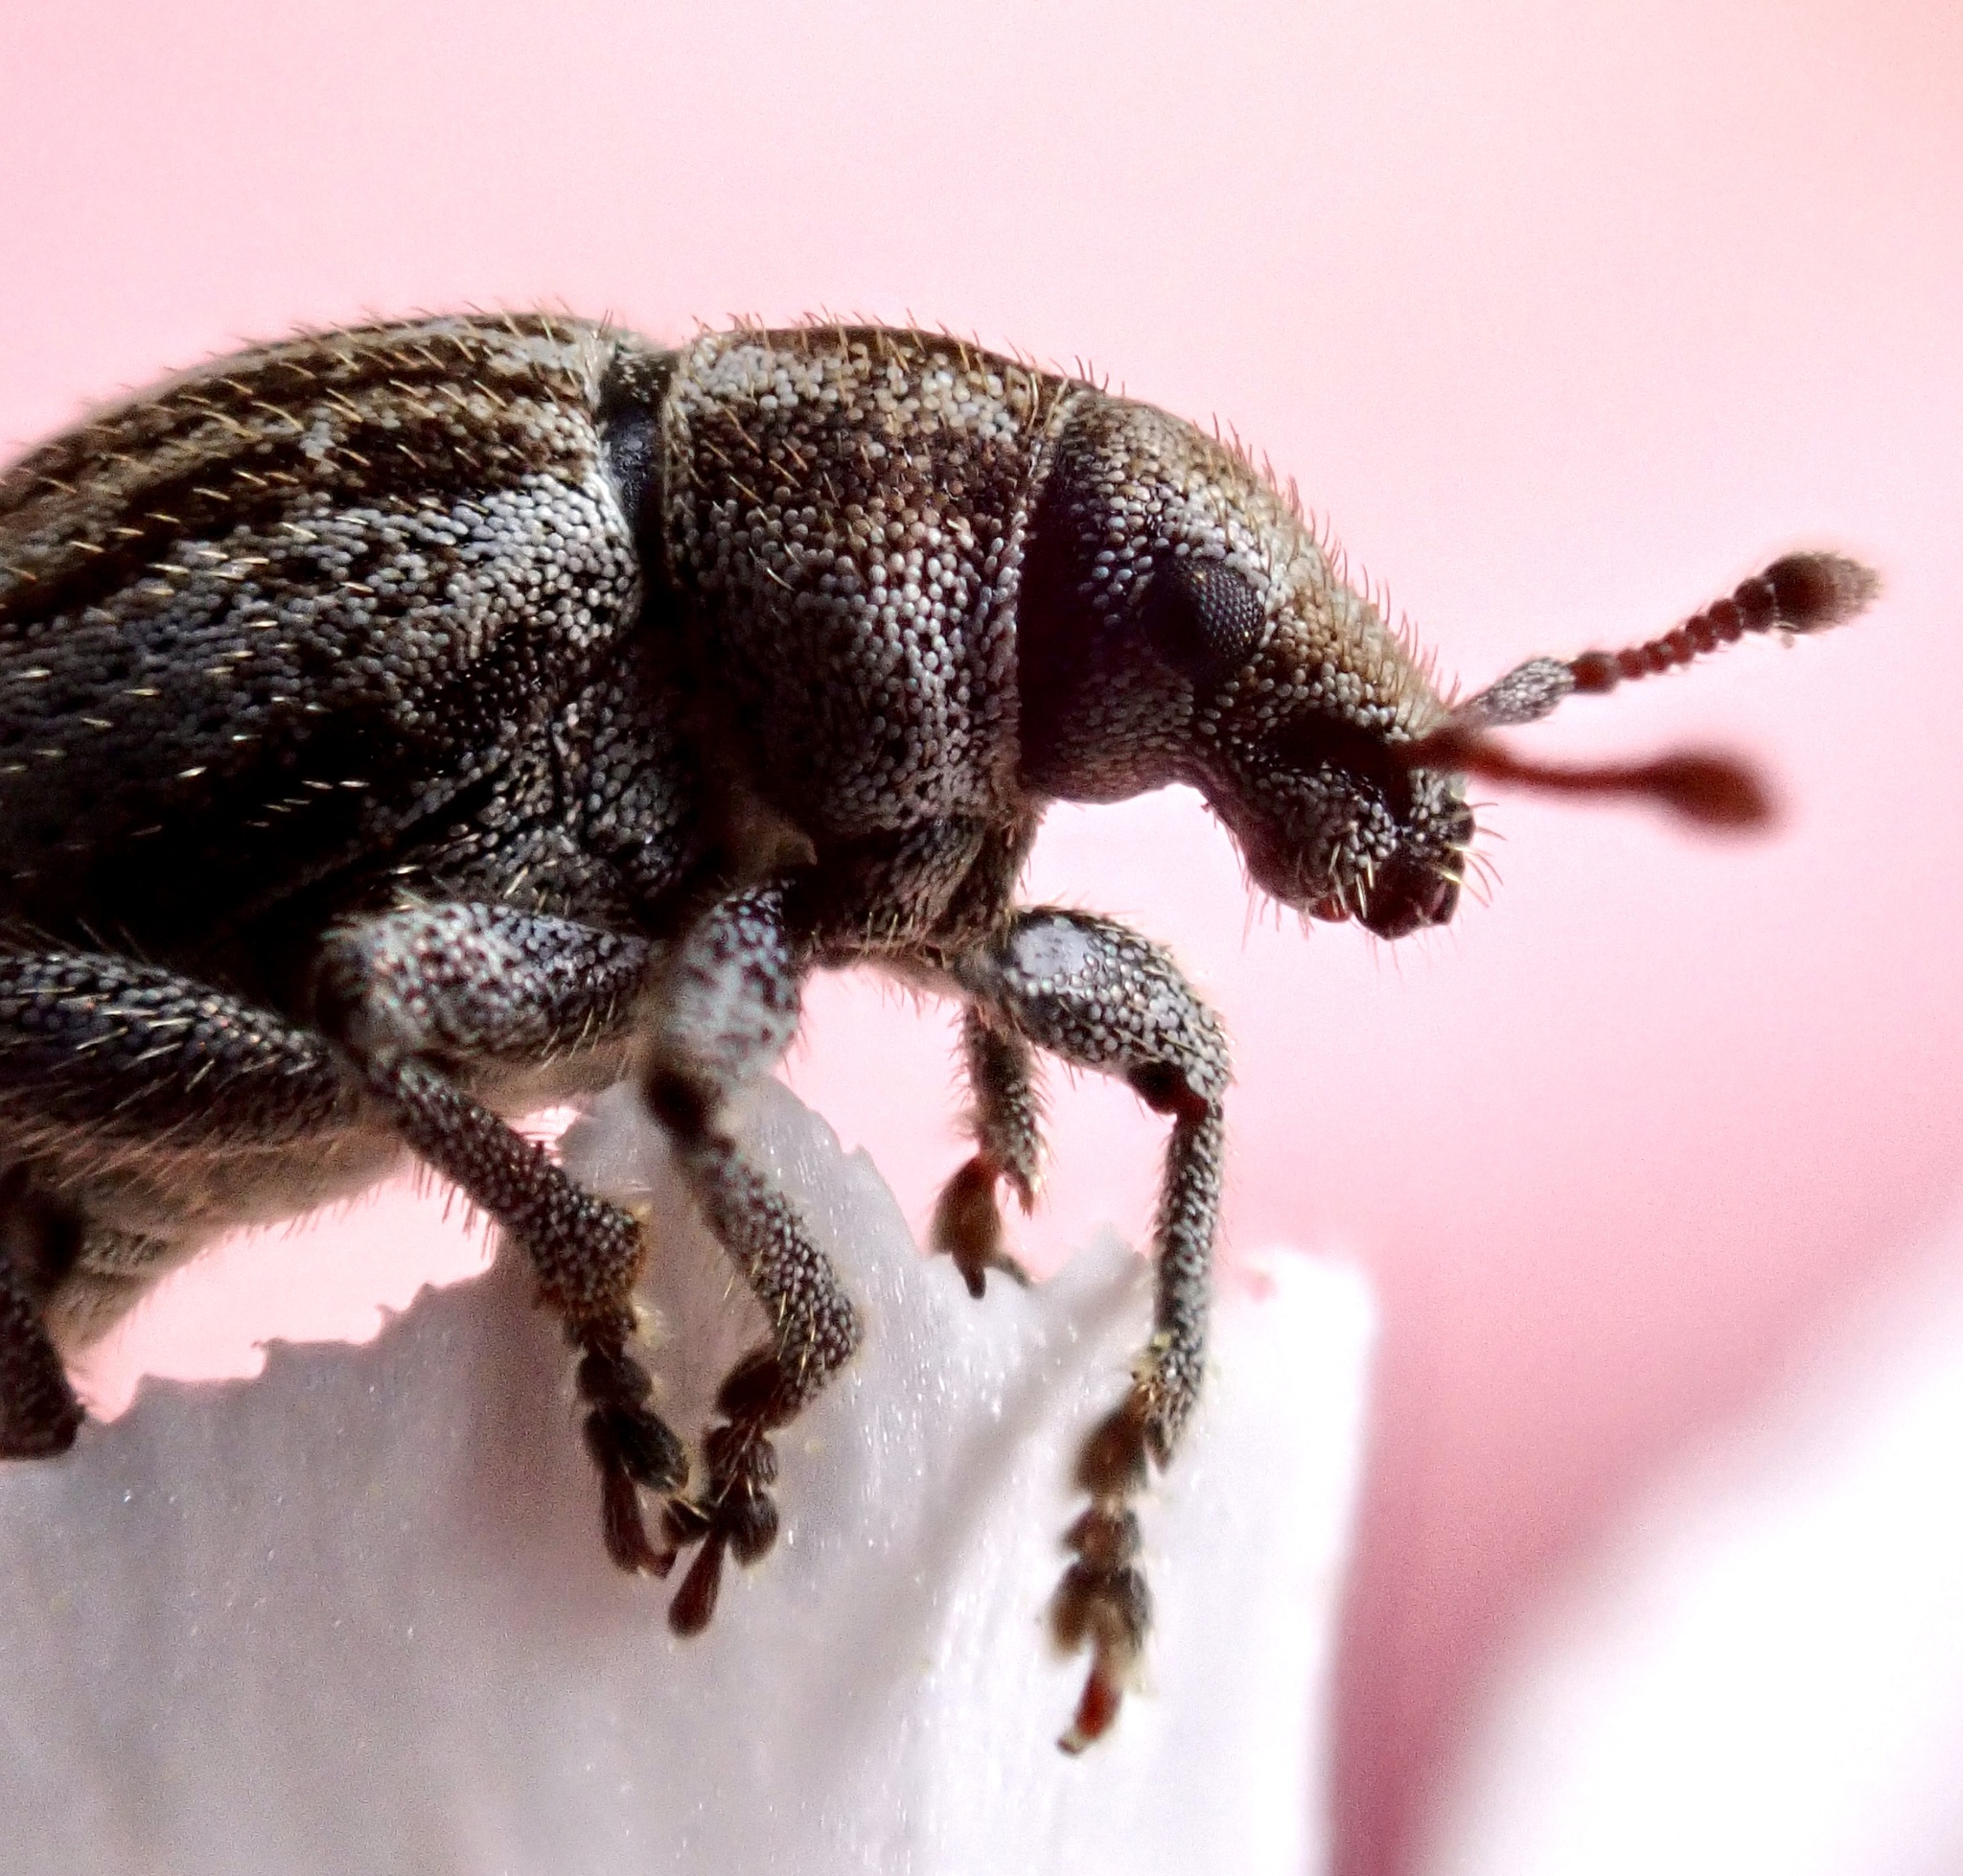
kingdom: Animalia
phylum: Arthropoda
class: Insecta
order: Coleoptera
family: Curculionidae
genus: Philopedon
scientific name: Philopedon plagiatum
